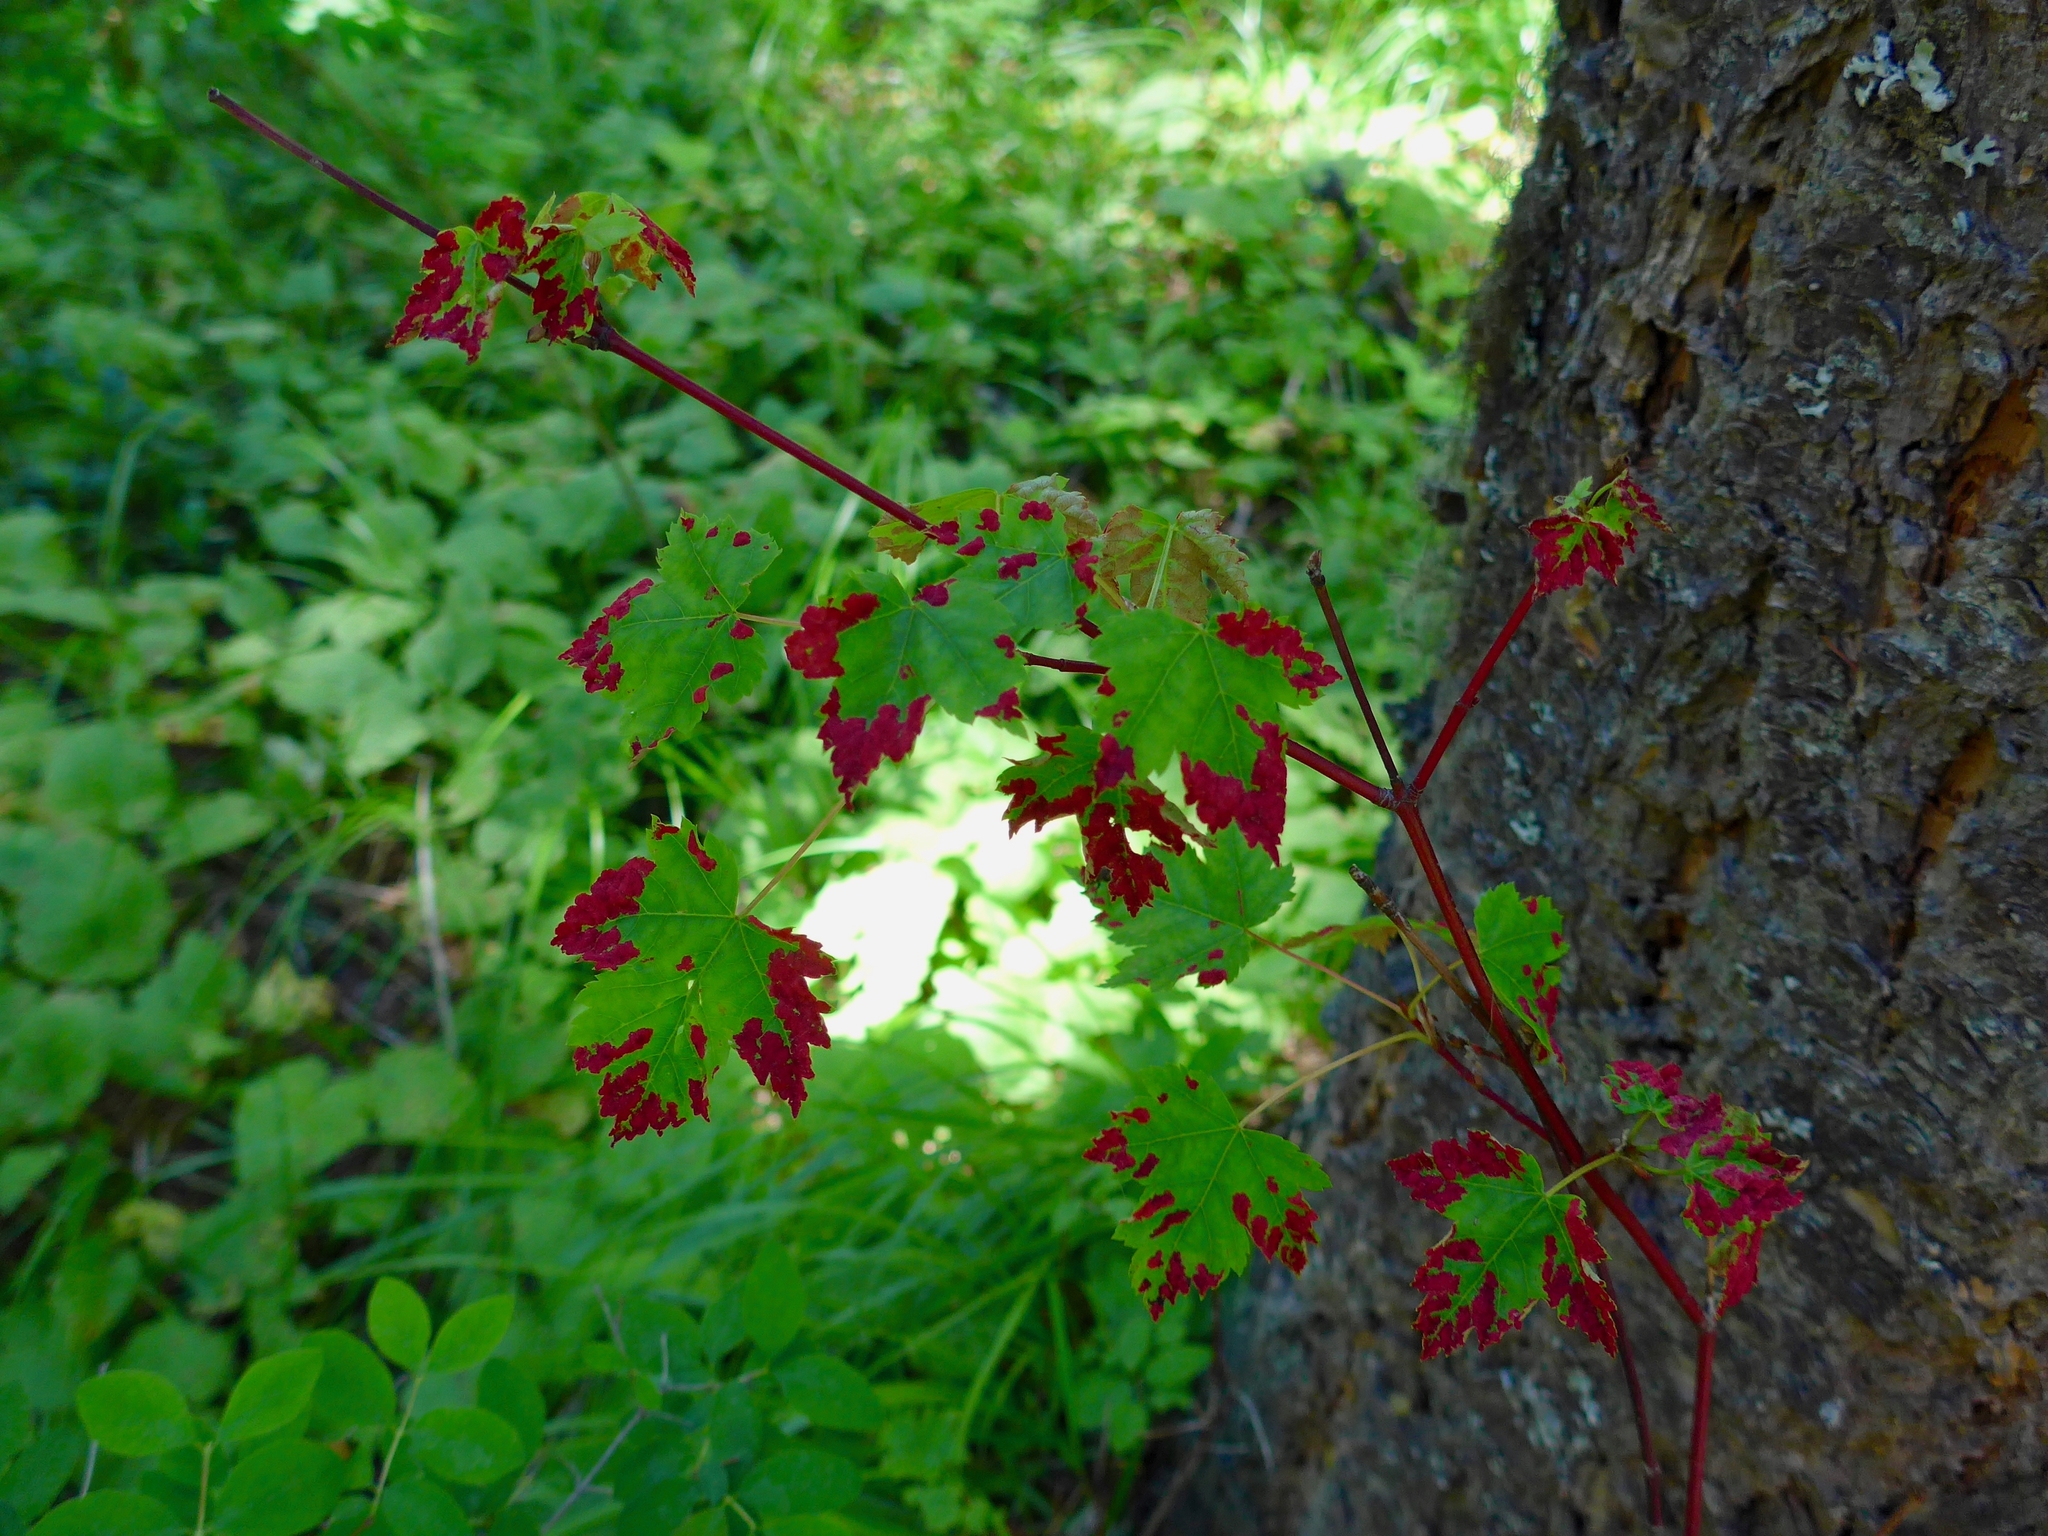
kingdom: Animalia
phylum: Arthropoda
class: Arachnida
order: Trombidiformes
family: Eriophyidae
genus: Aceria
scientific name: Aceria
